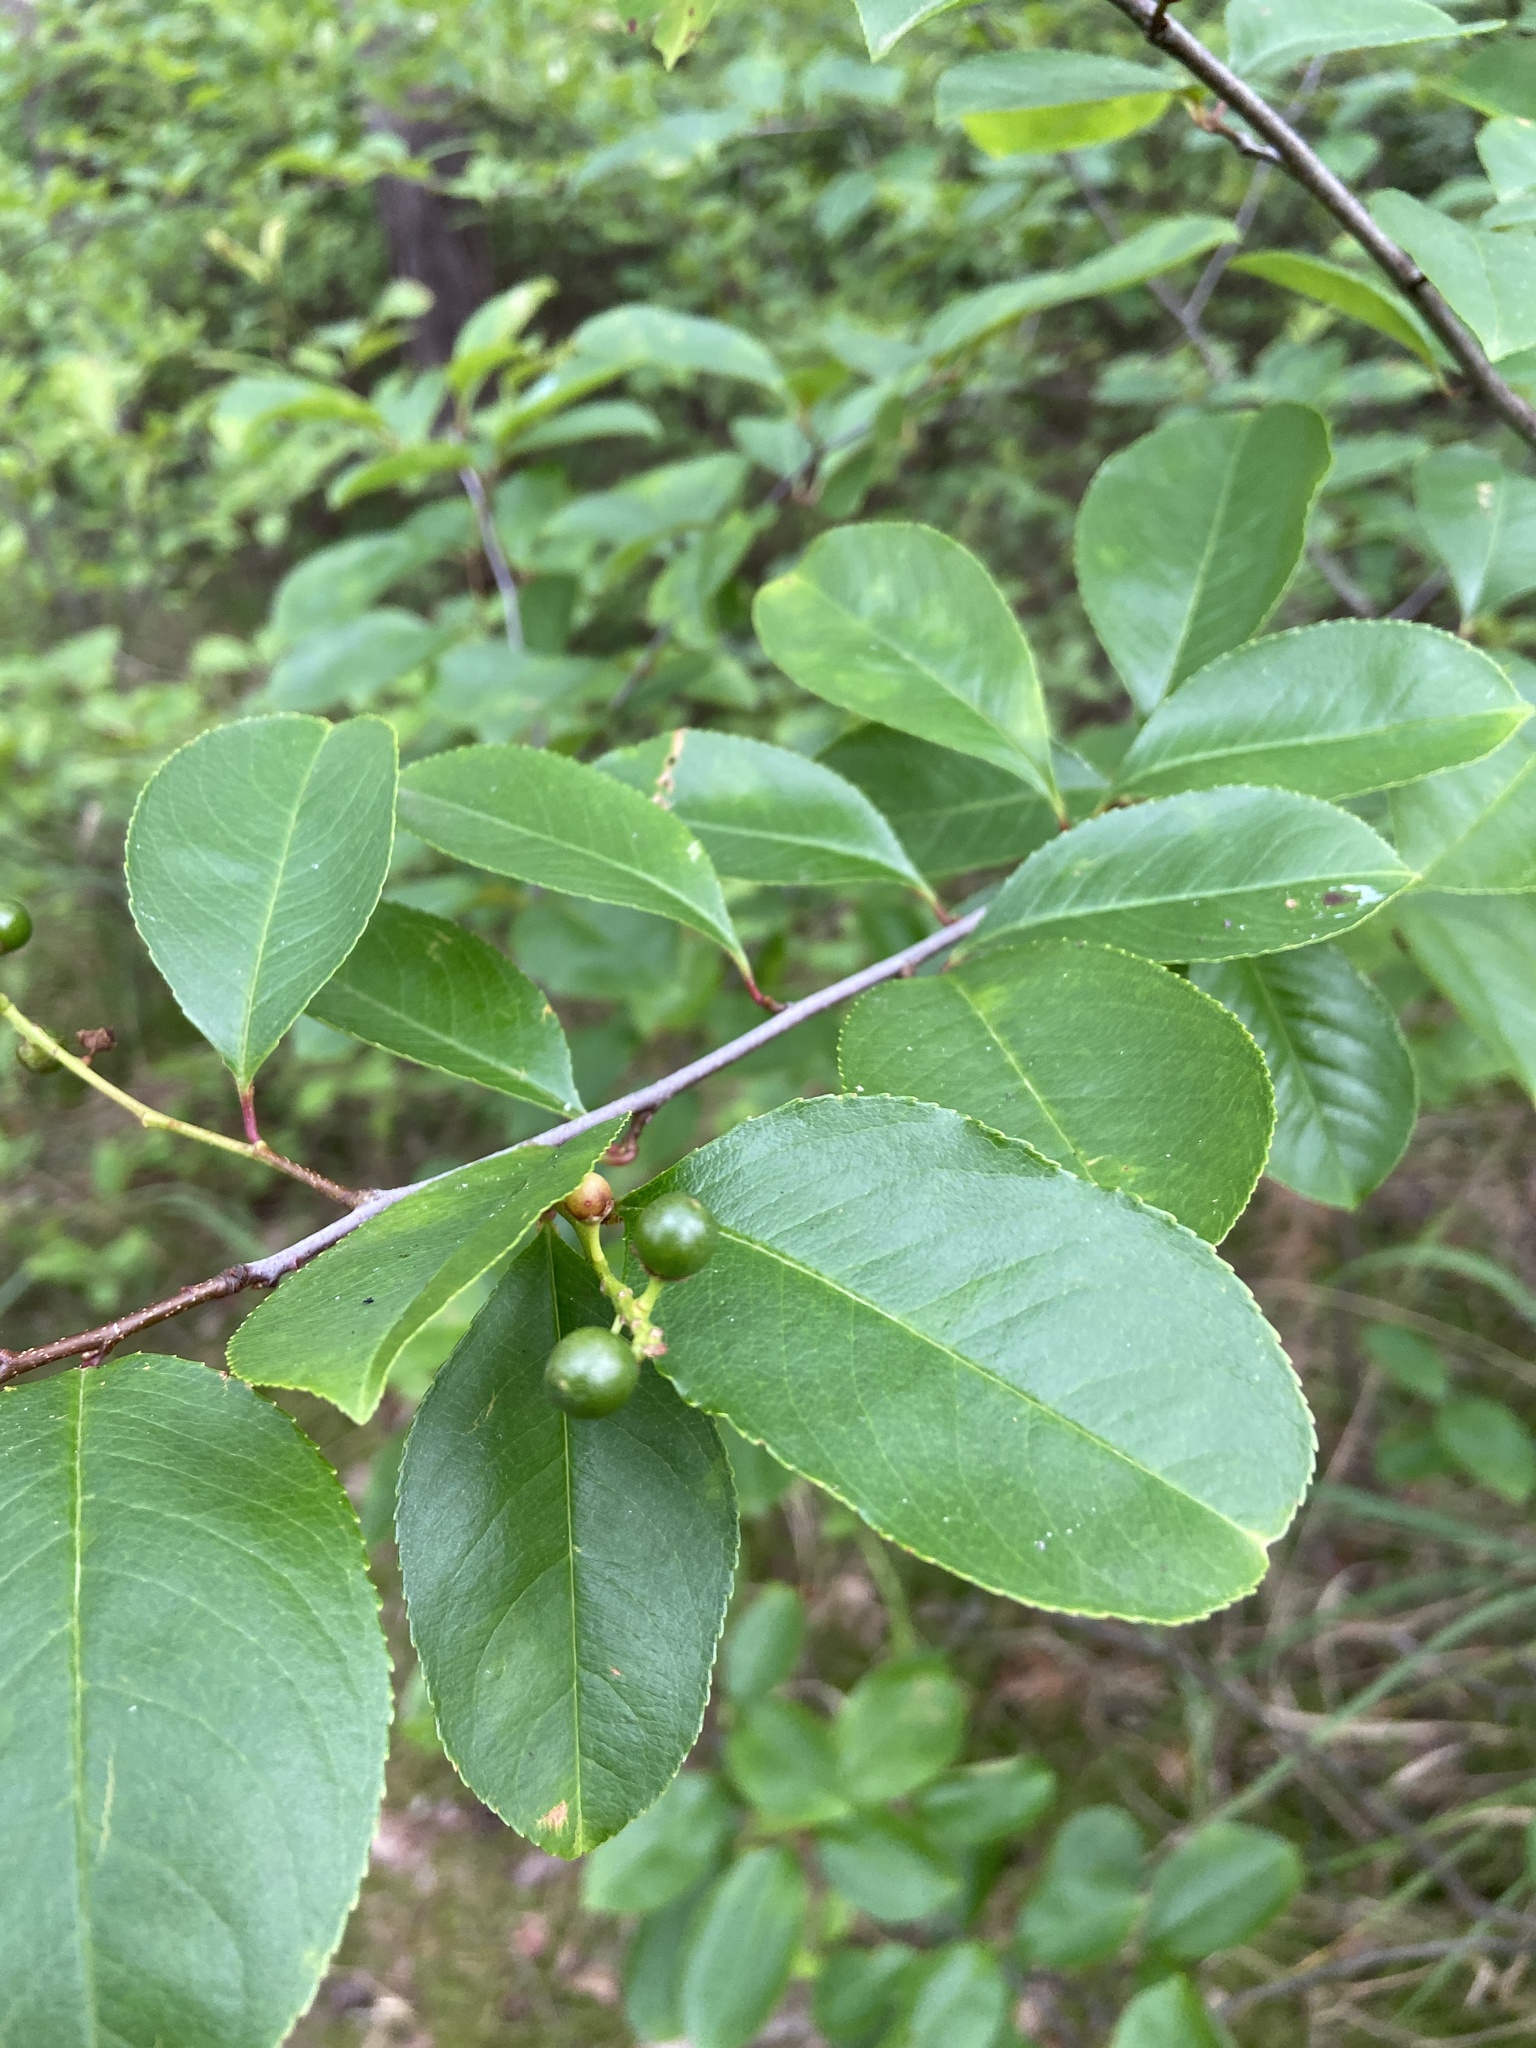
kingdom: Plantae
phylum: Tracheophyta
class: Magnoliopsida
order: Rosales
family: Rosaceae
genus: Prunus
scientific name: Prunus serotina
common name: Black cherry
